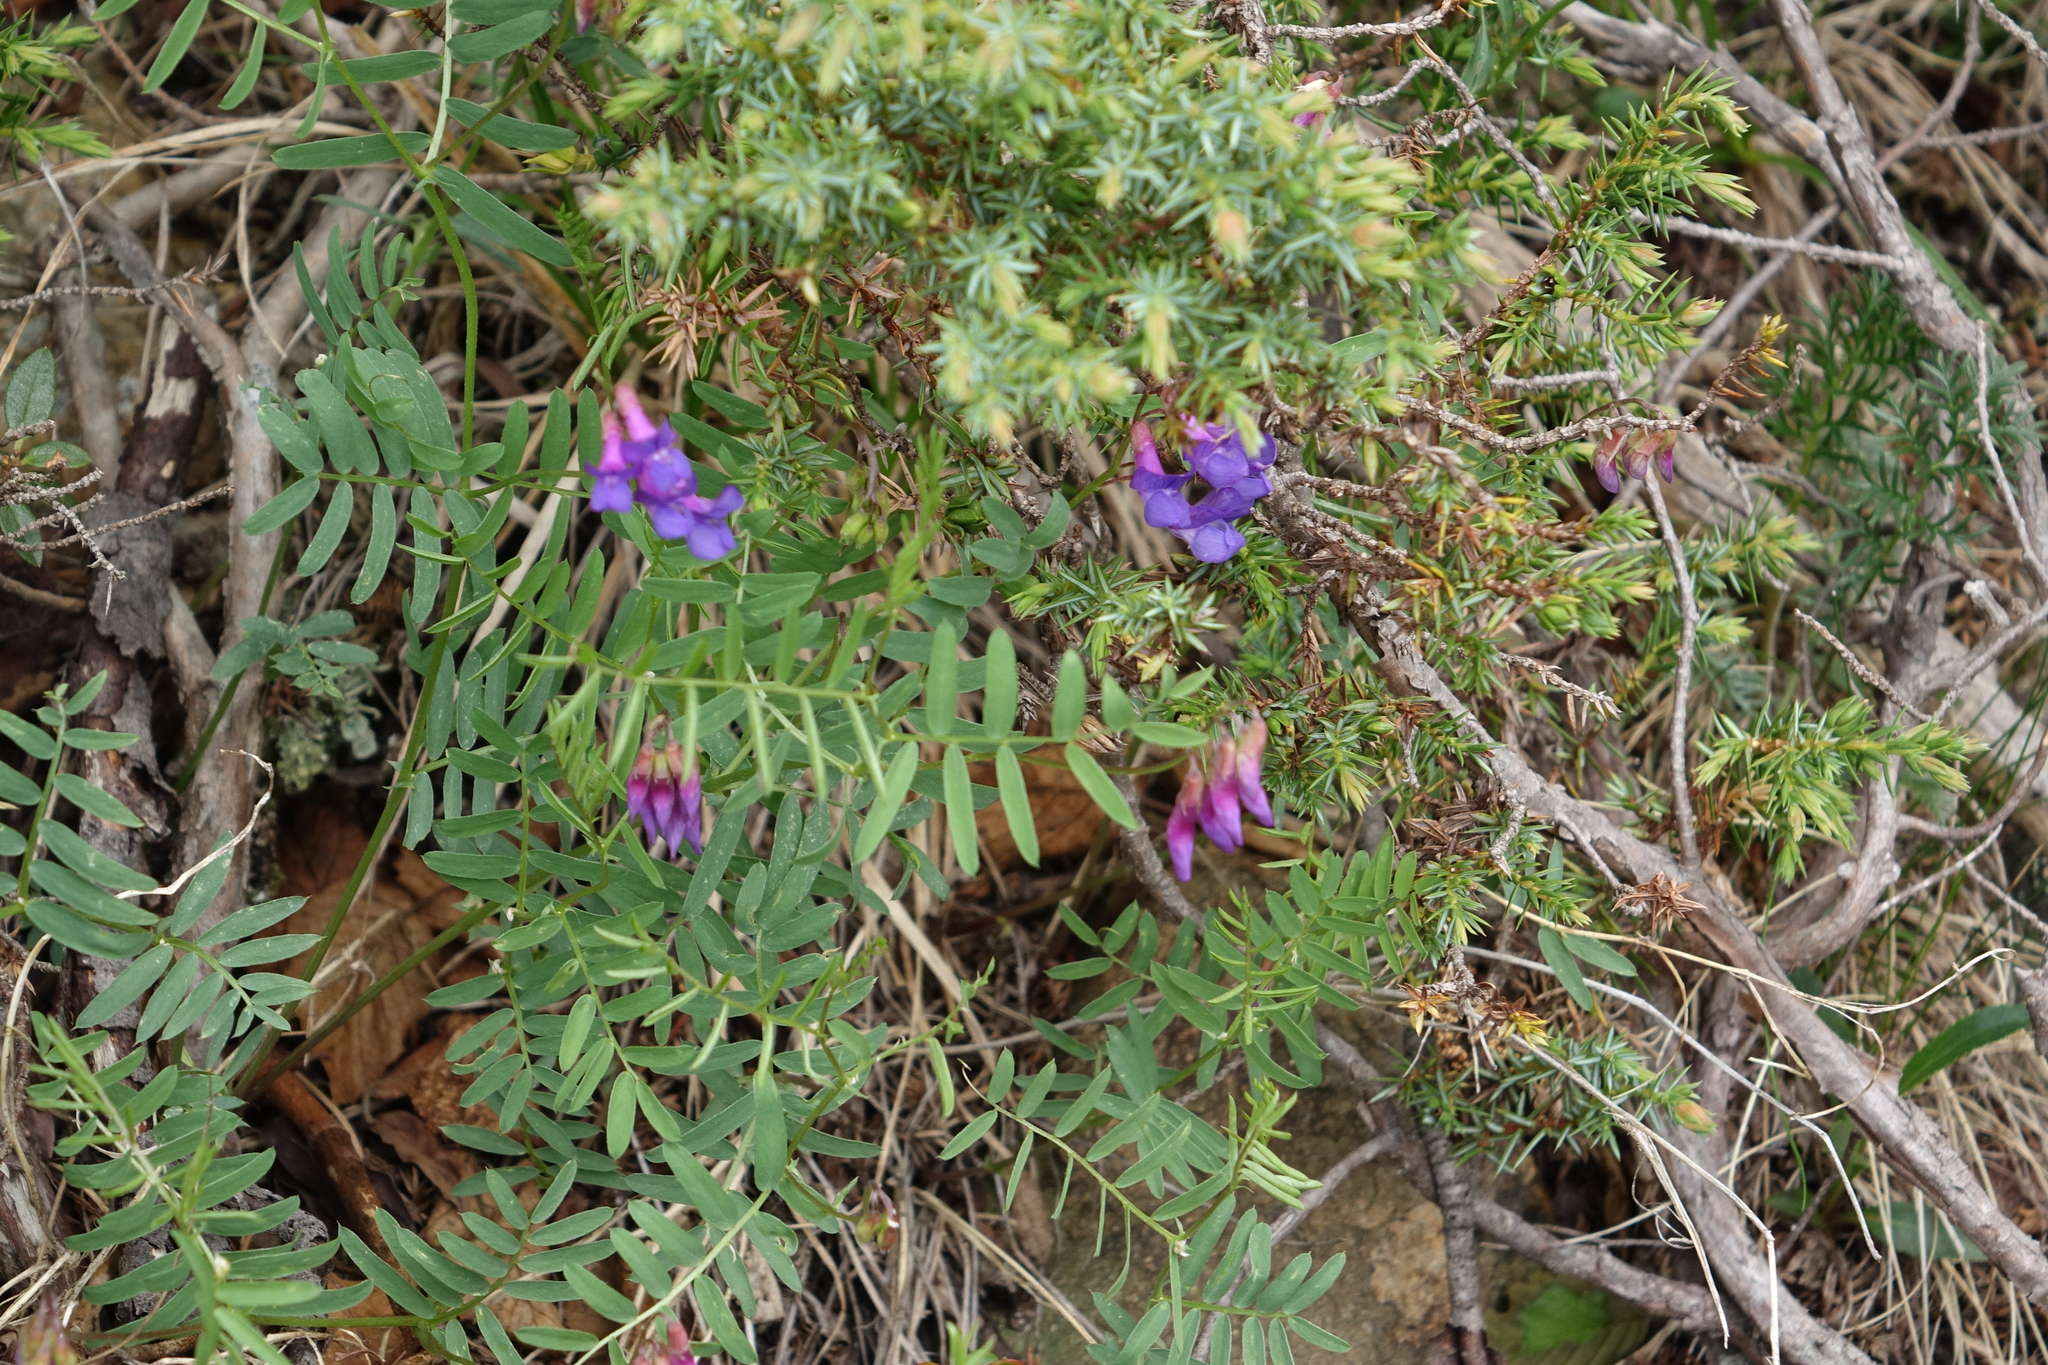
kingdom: Plantae
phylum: Tracheophyta
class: Magnoliopsida
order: Fabales
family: Fabaceae
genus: Vicia
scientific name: Vicia multicaulis
